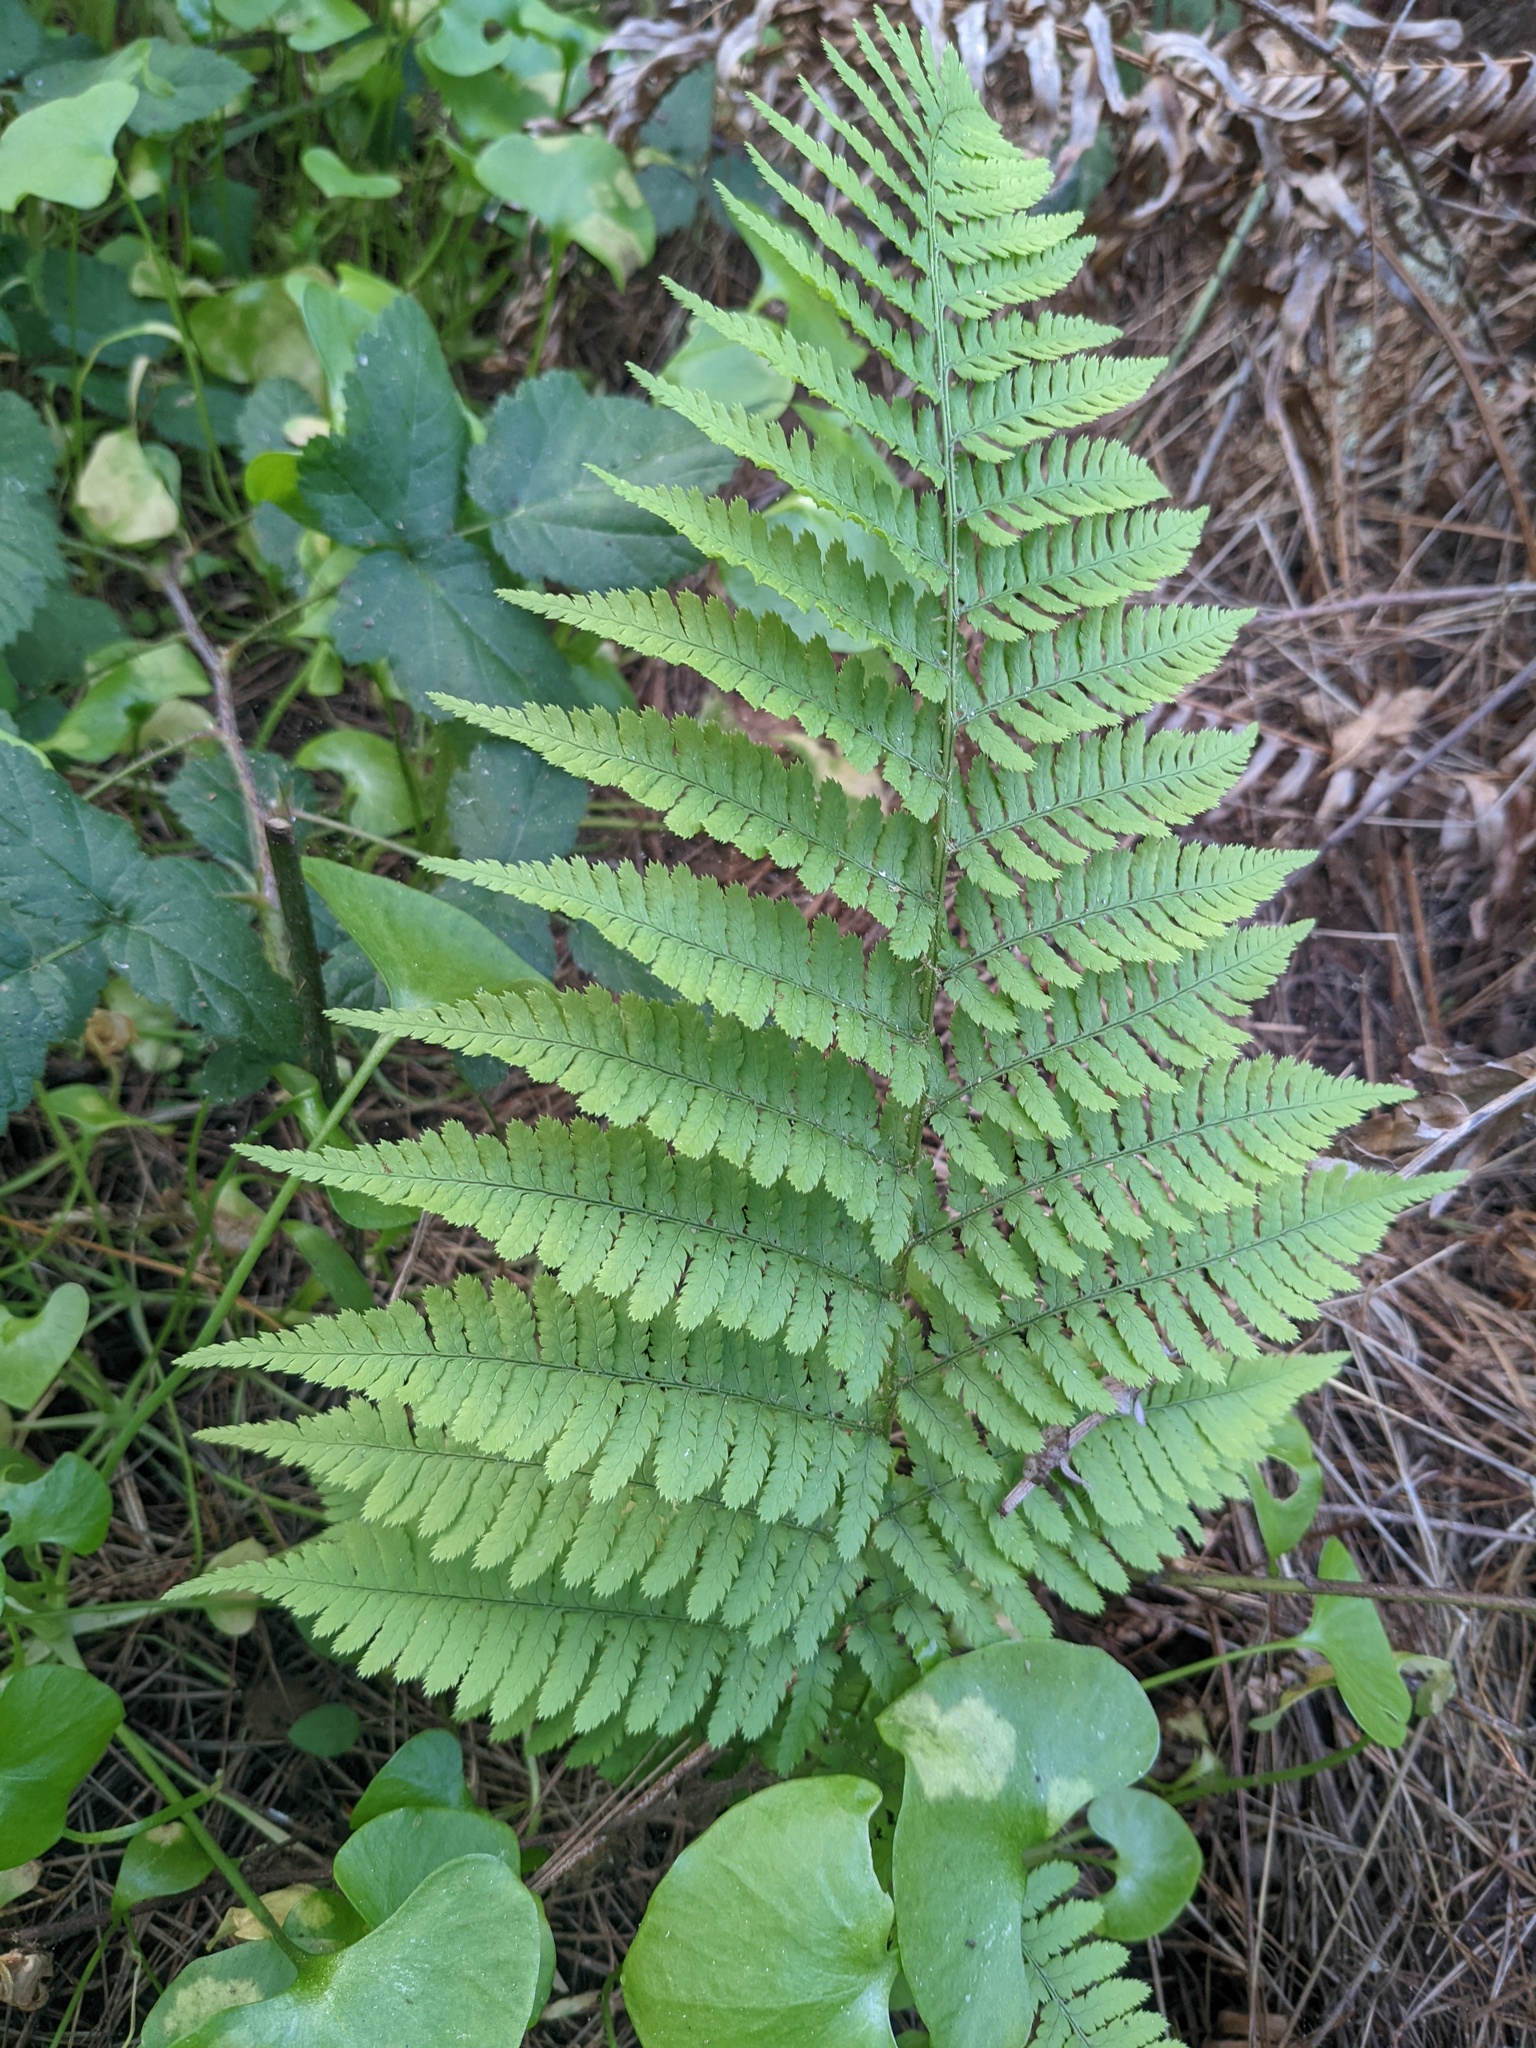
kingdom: Plantae
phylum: Tracheophyta
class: Polypodiopsida
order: Polypodiales
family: Dryopteridaceae
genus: Dryopteris
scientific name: Dryopteris arguta
